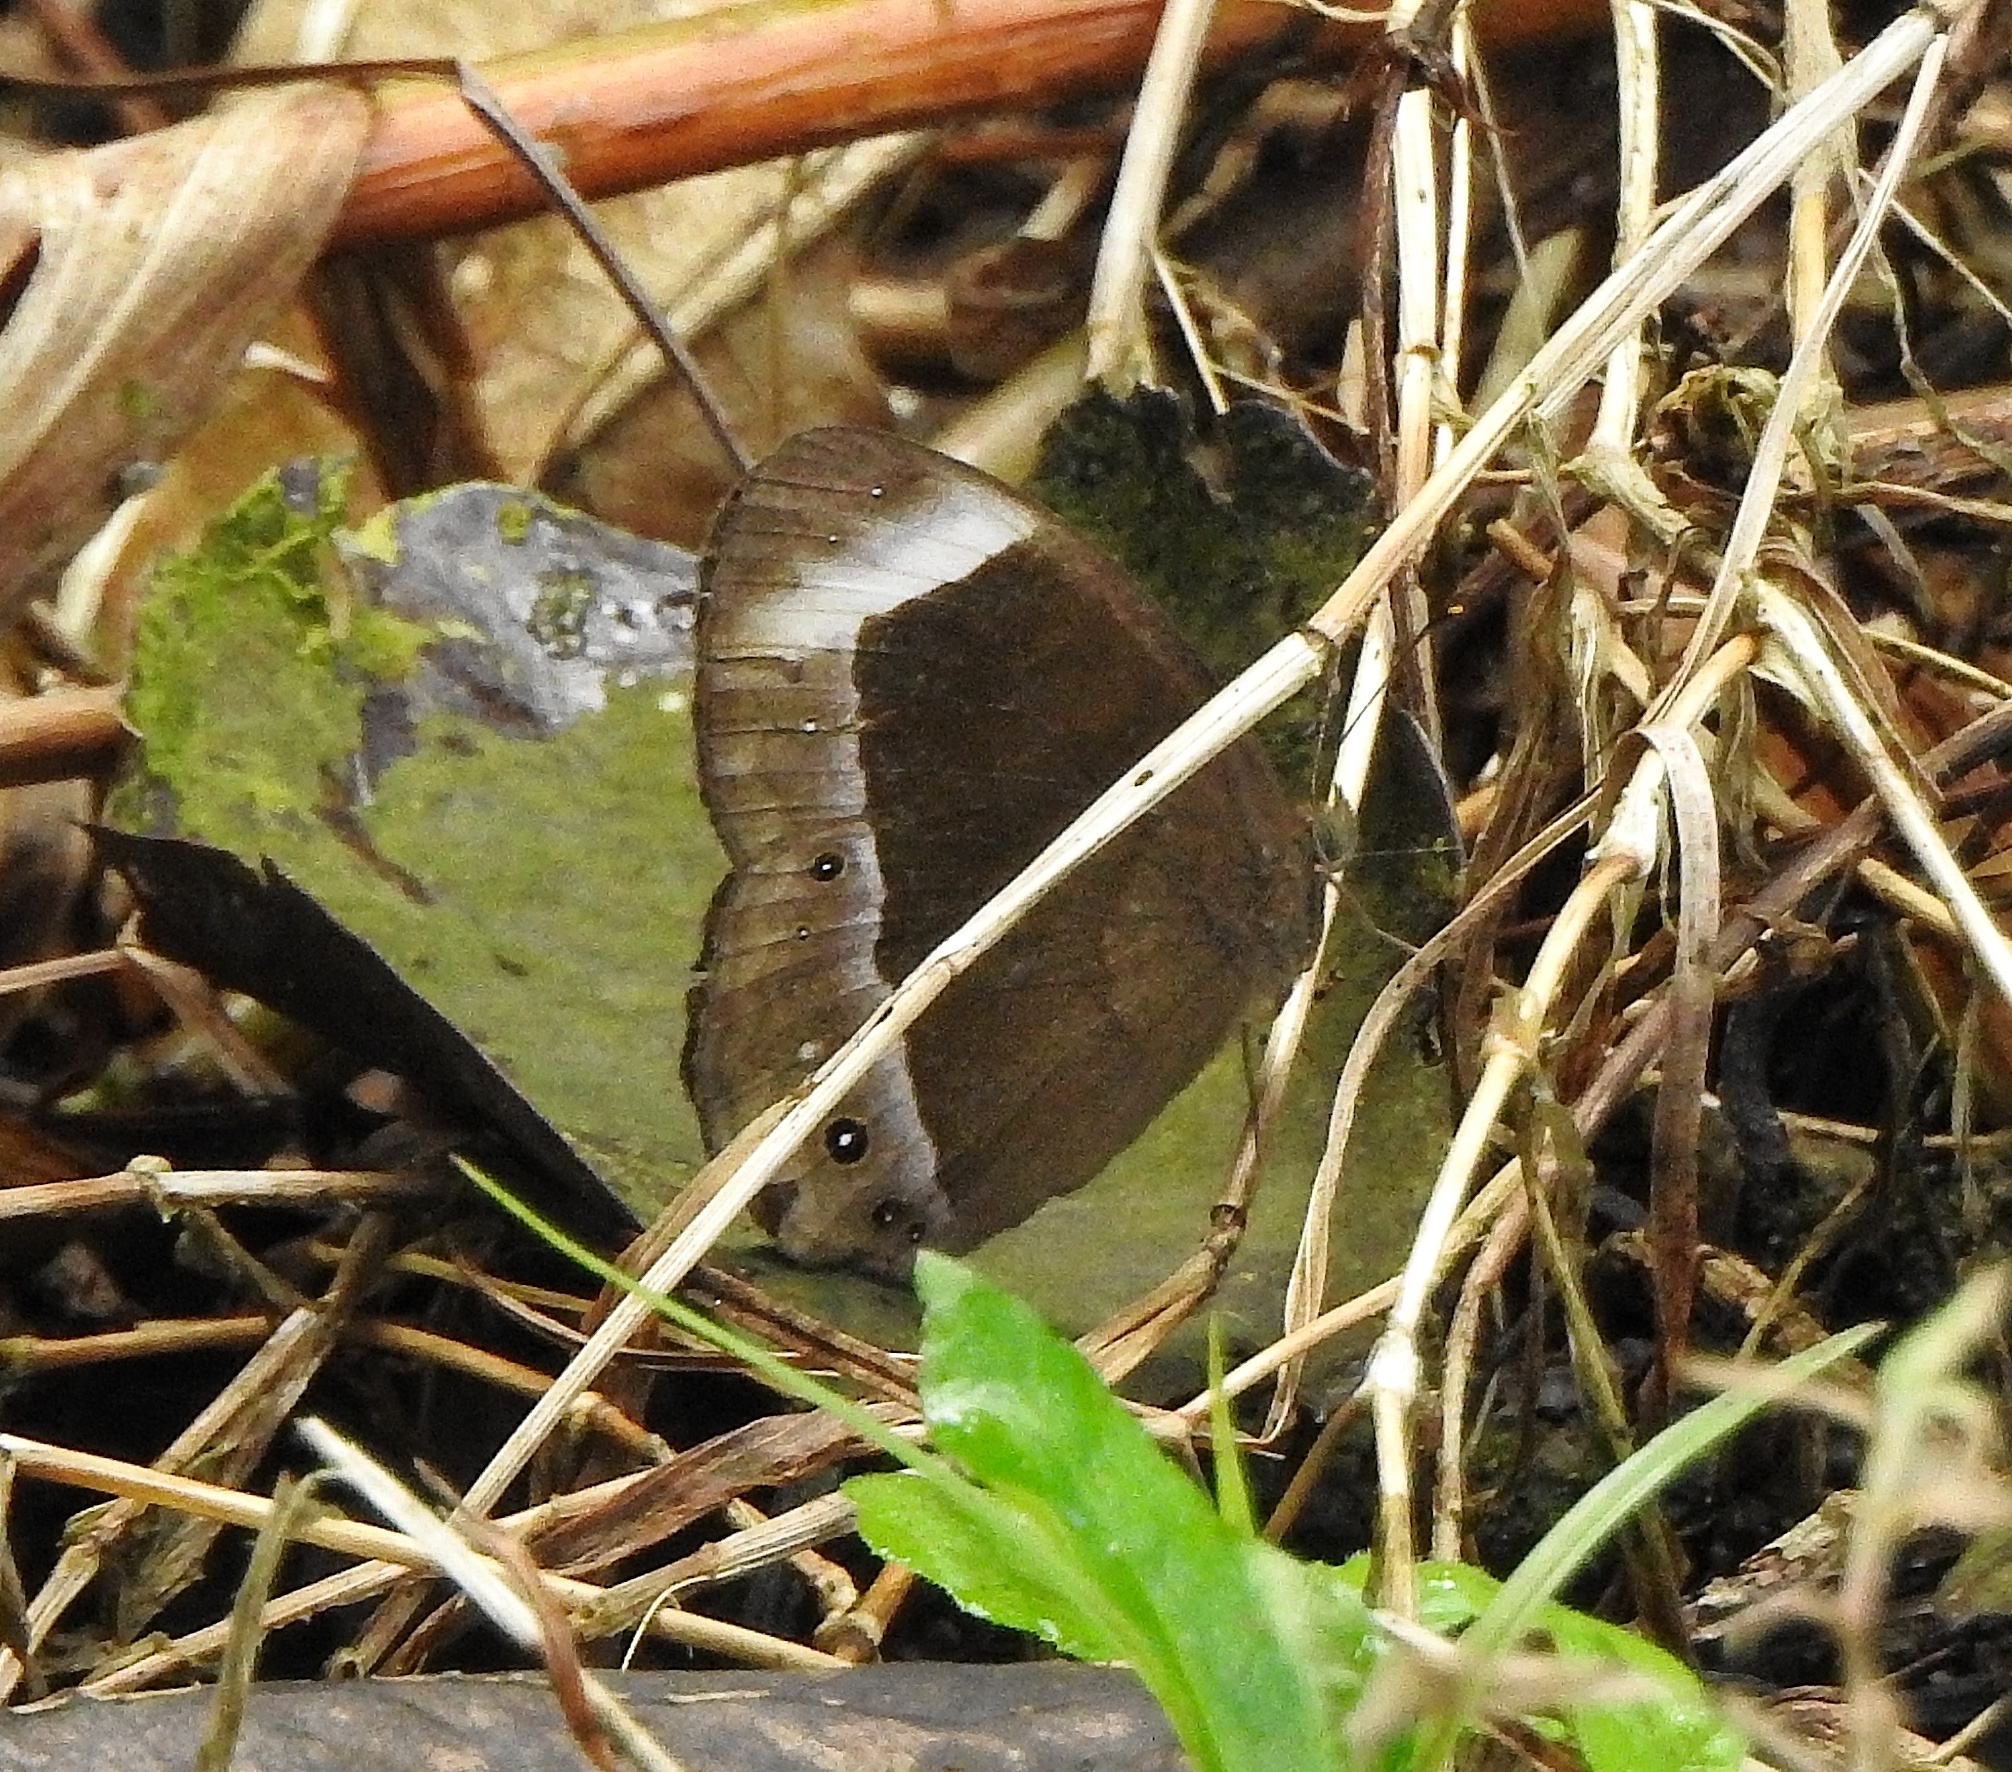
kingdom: Animalia
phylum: Arthropoda
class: Insecta
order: Lepidoptera
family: Nymphalidae
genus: Mycalesis
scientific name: Mycalesis anaxias
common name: White-bar bushbrown
